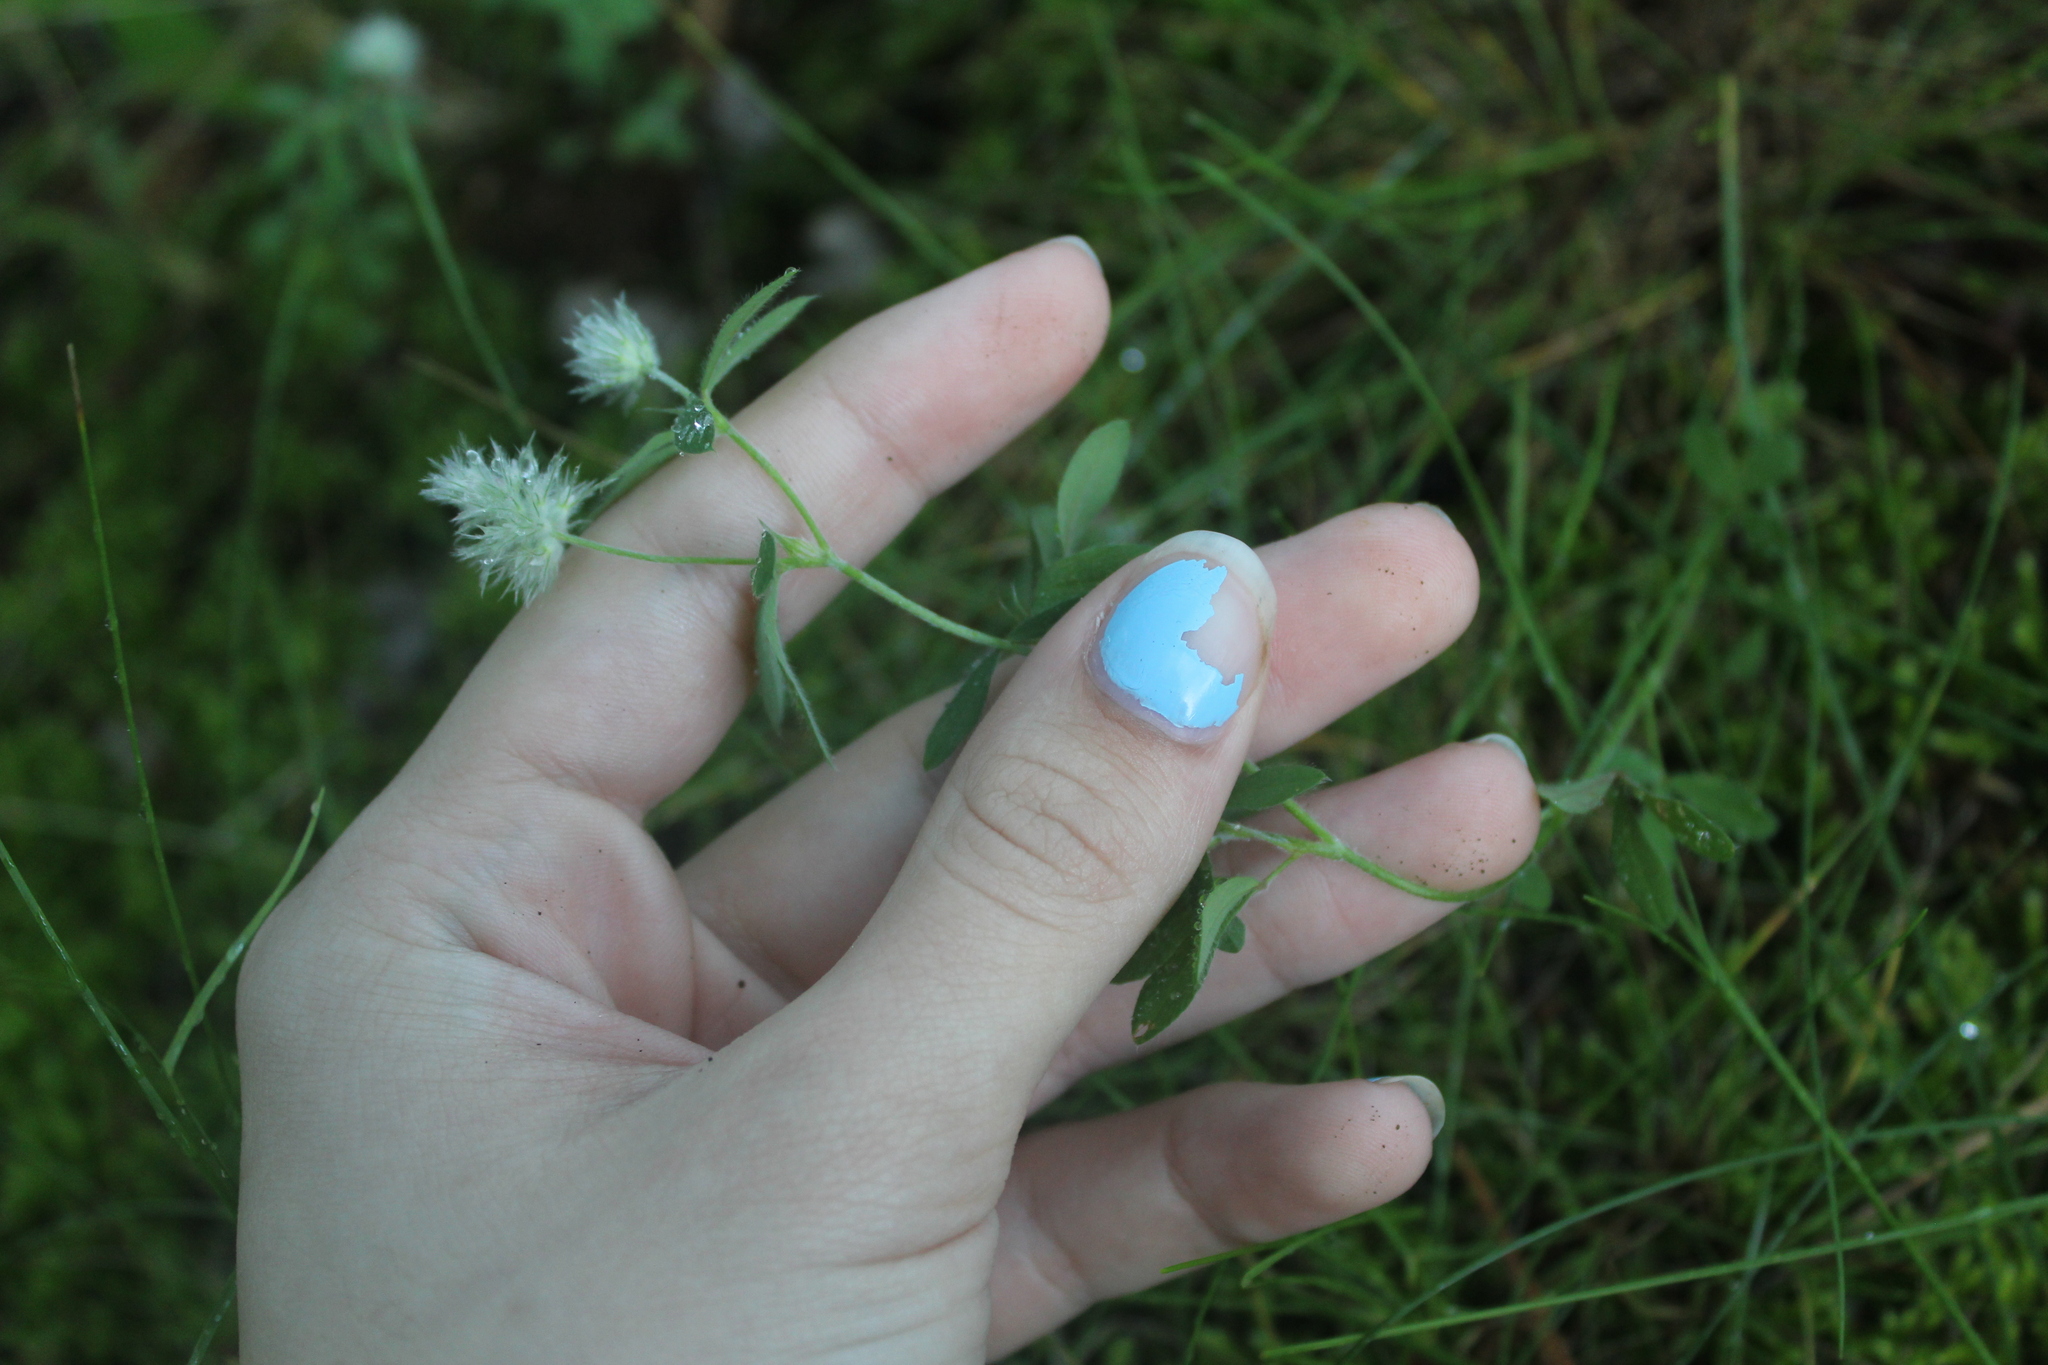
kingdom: Plantae
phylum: Tracheophyta
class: Magnoliopsida
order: Fabales
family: Fabaceae
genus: Trifolium
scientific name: Trifolium arvense
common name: Hare's-foot clover
